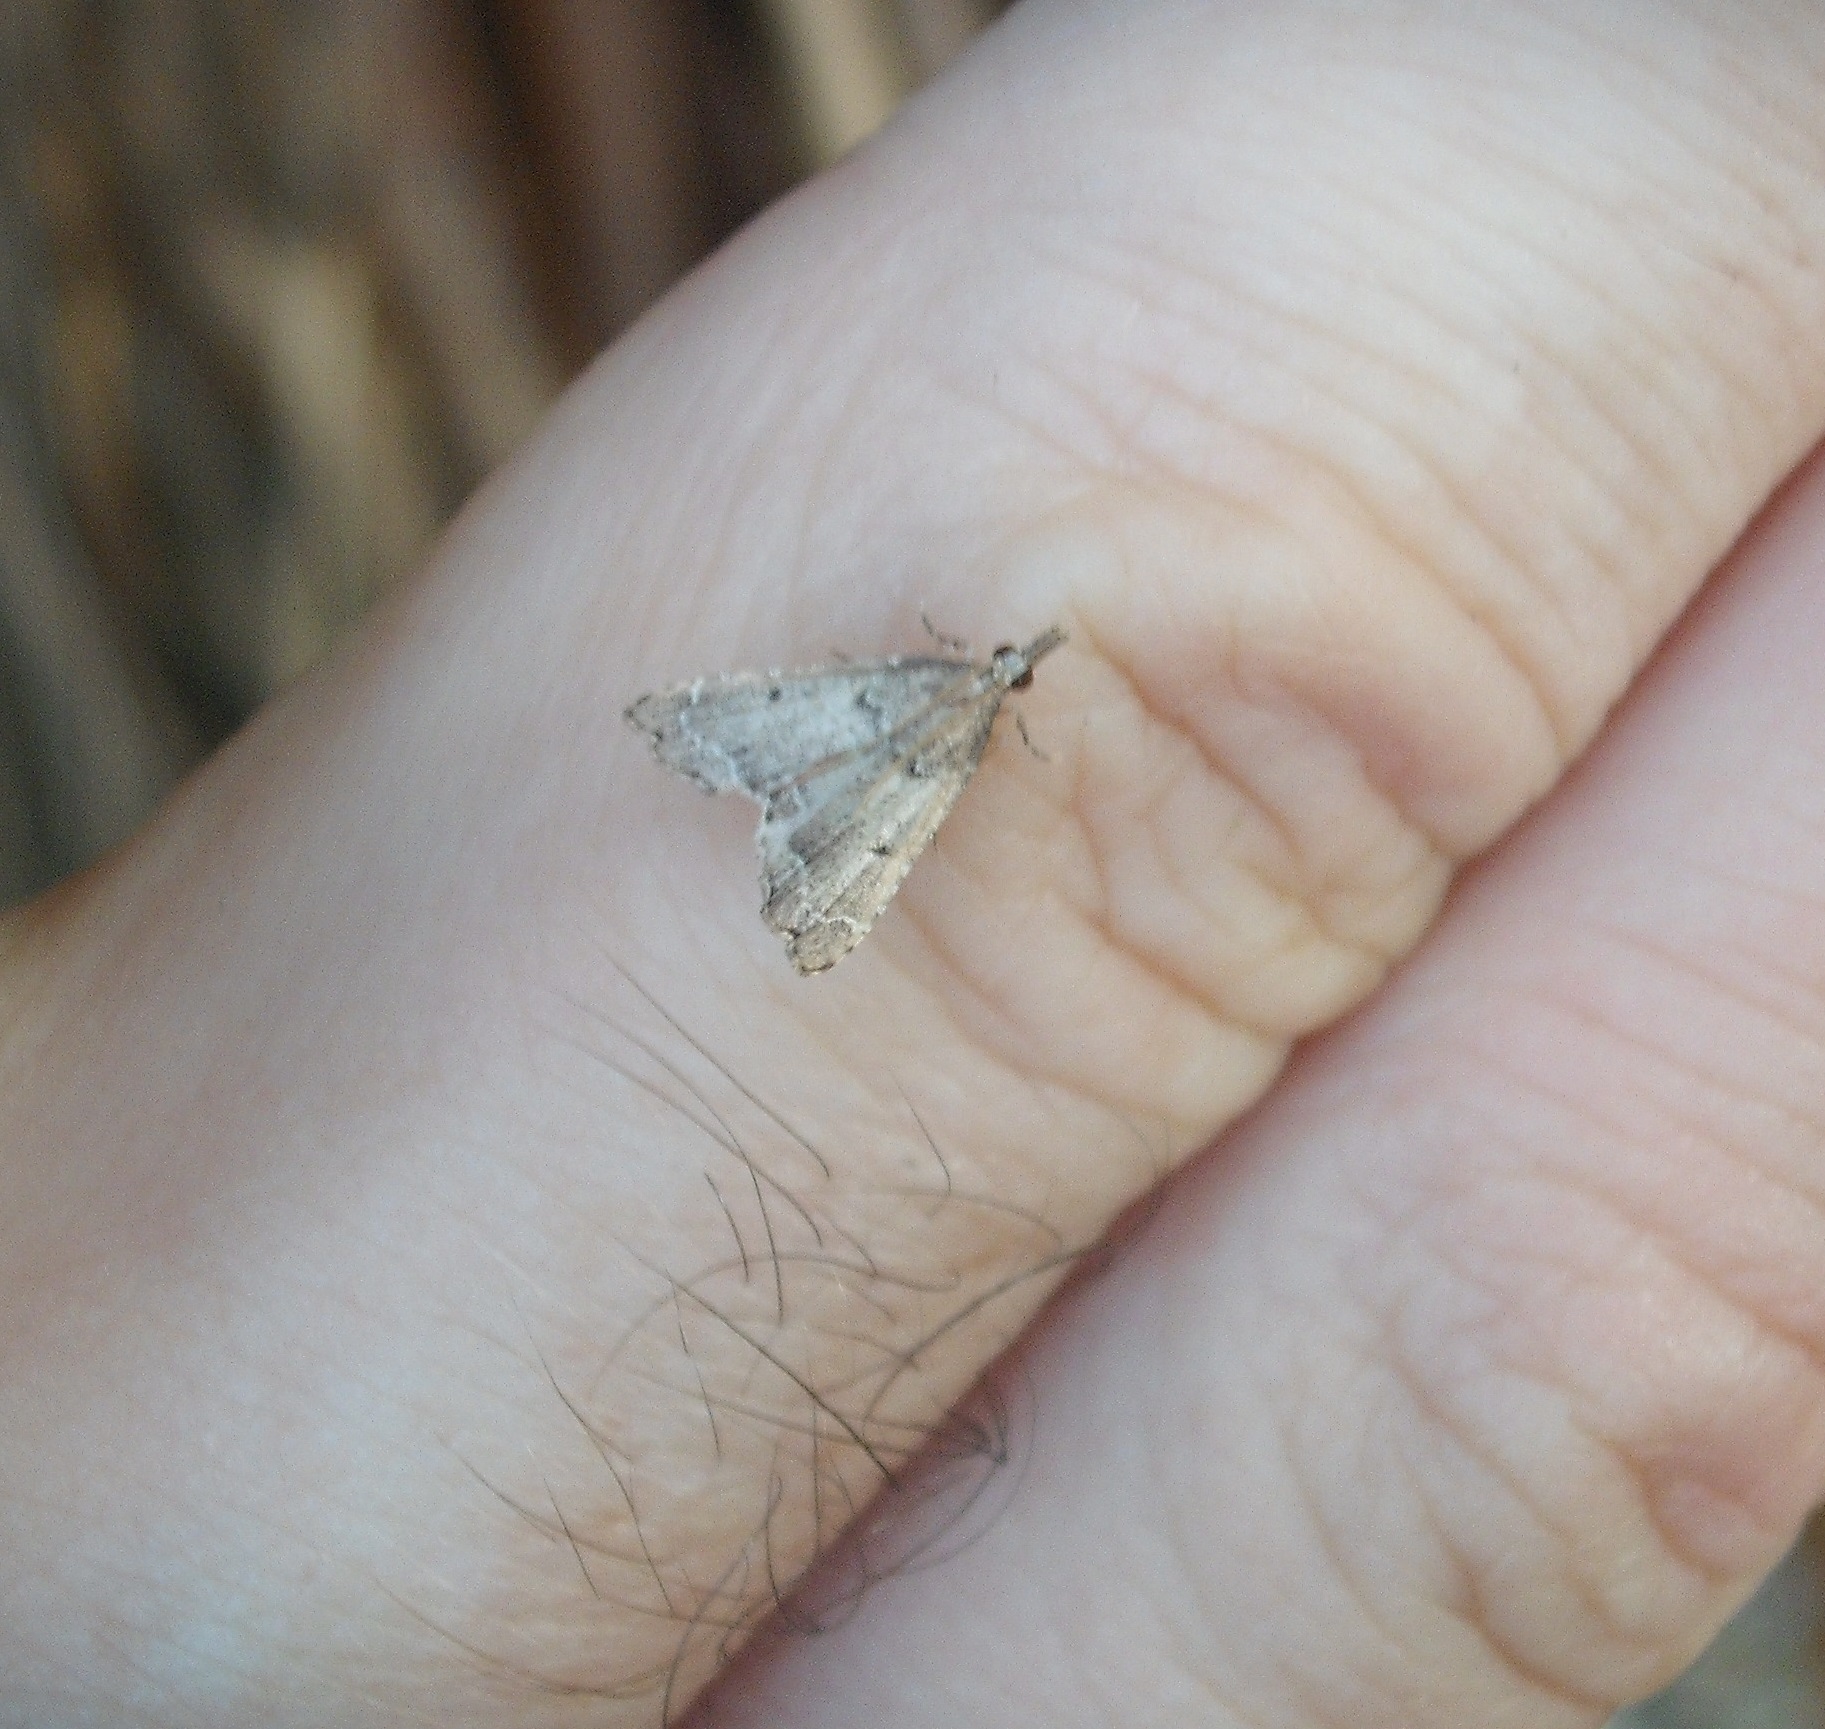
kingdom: Animalia
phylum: Arthropoda
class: Insecta
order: Lepidoptera
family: Crambidae
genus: Diplopseustis
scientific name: Diplopseustis perieresalis
